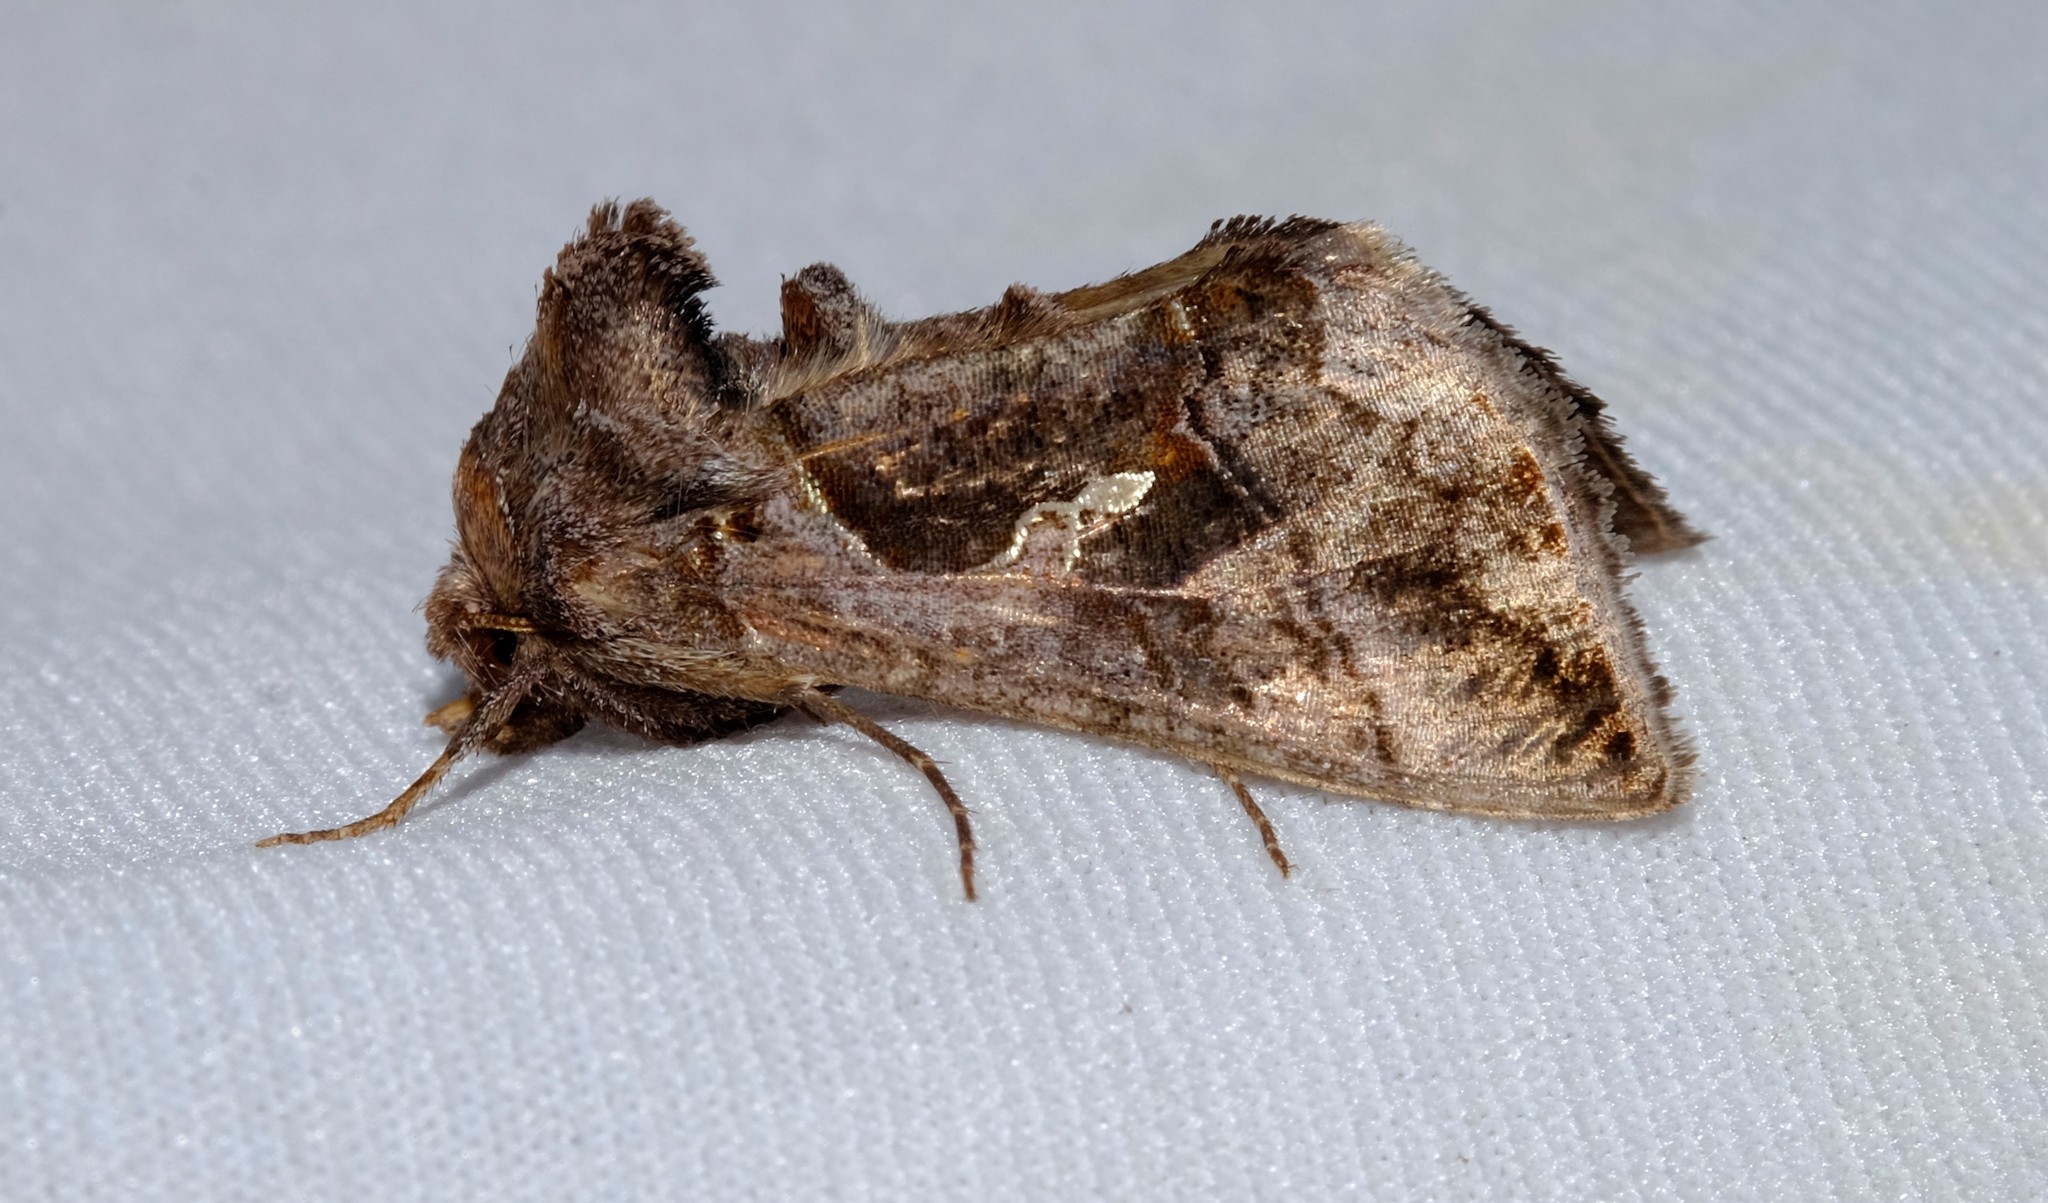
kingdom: Animalia
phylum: Arthropoda
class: Insecta
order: Lepidoptera
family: Noctuidae
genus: Chrysodeixis
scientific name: Chrysodeixis subsidens
